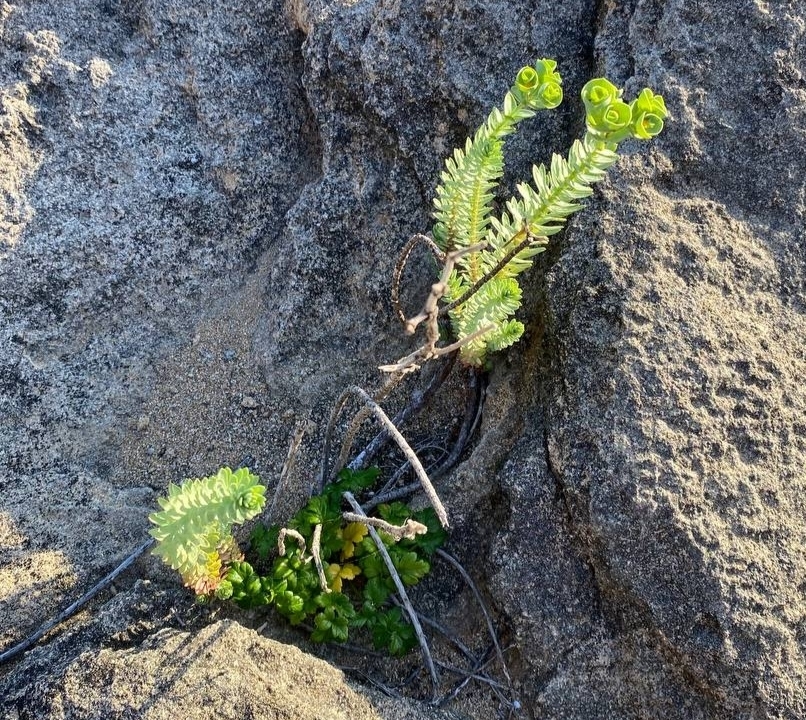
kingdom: Plantae
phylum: Tracheophyta
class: Magnoliopsida
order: Malpighiales
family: Euphorbiaceae
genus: Euphorbia
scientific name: Euphorbia paralias
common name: Sea spurge
